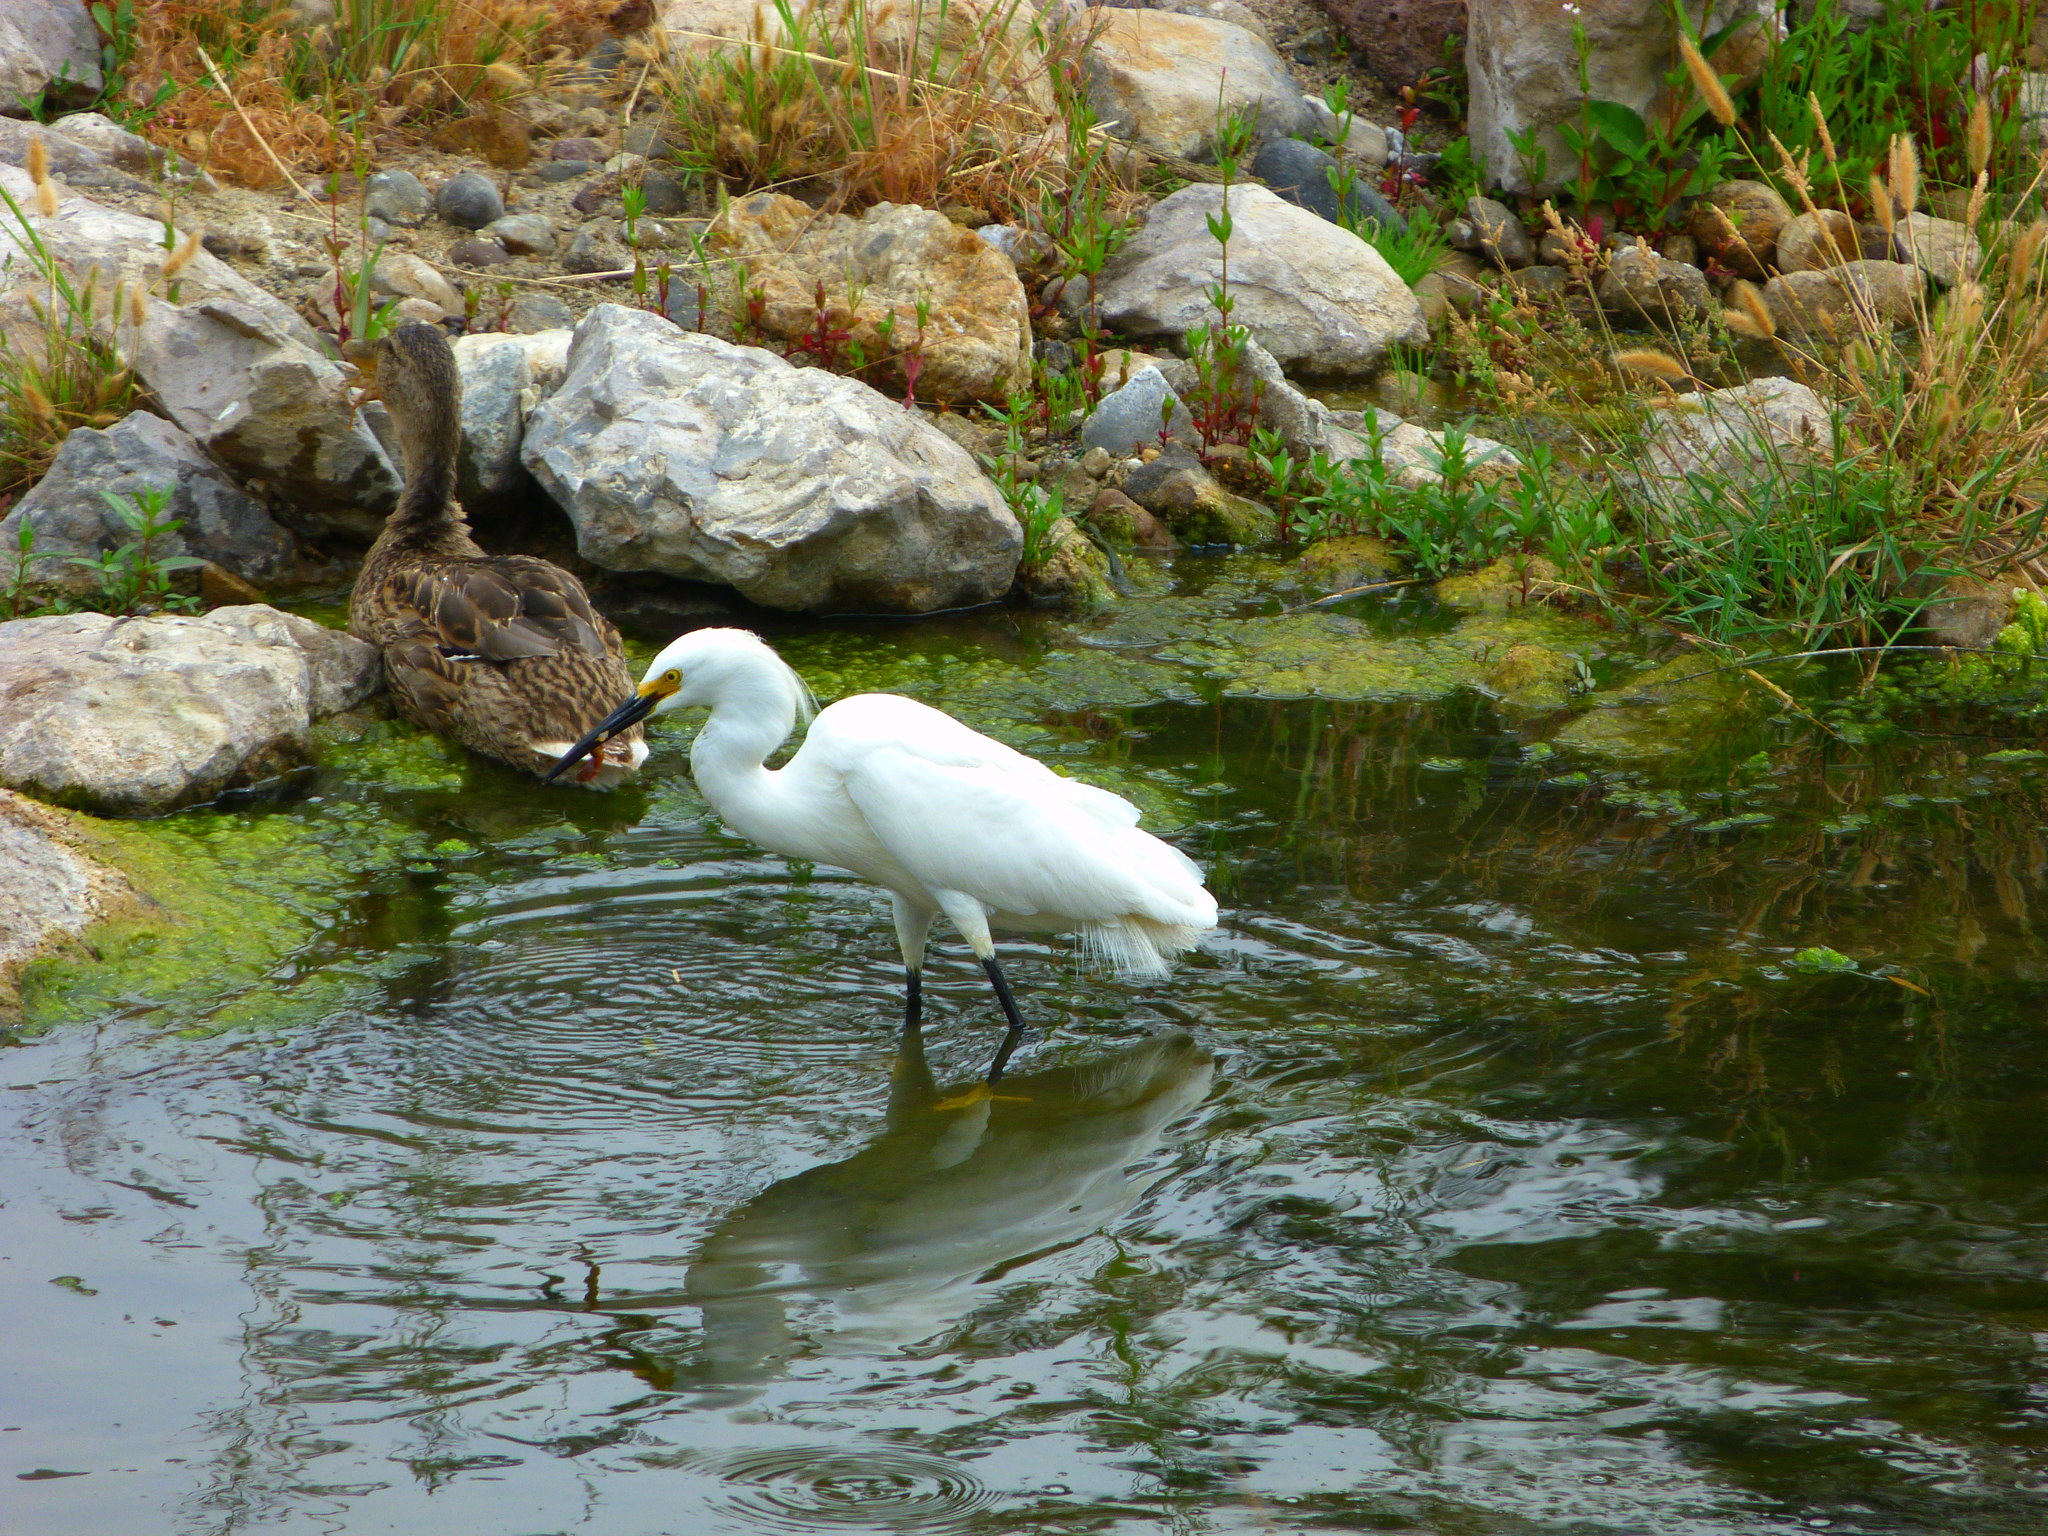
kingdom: Animalia
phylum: Chordata
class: Aves
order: Pelecaniformes
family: Ardeidae
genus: Egretta
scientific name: Egretta thula
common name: Snowy egret
